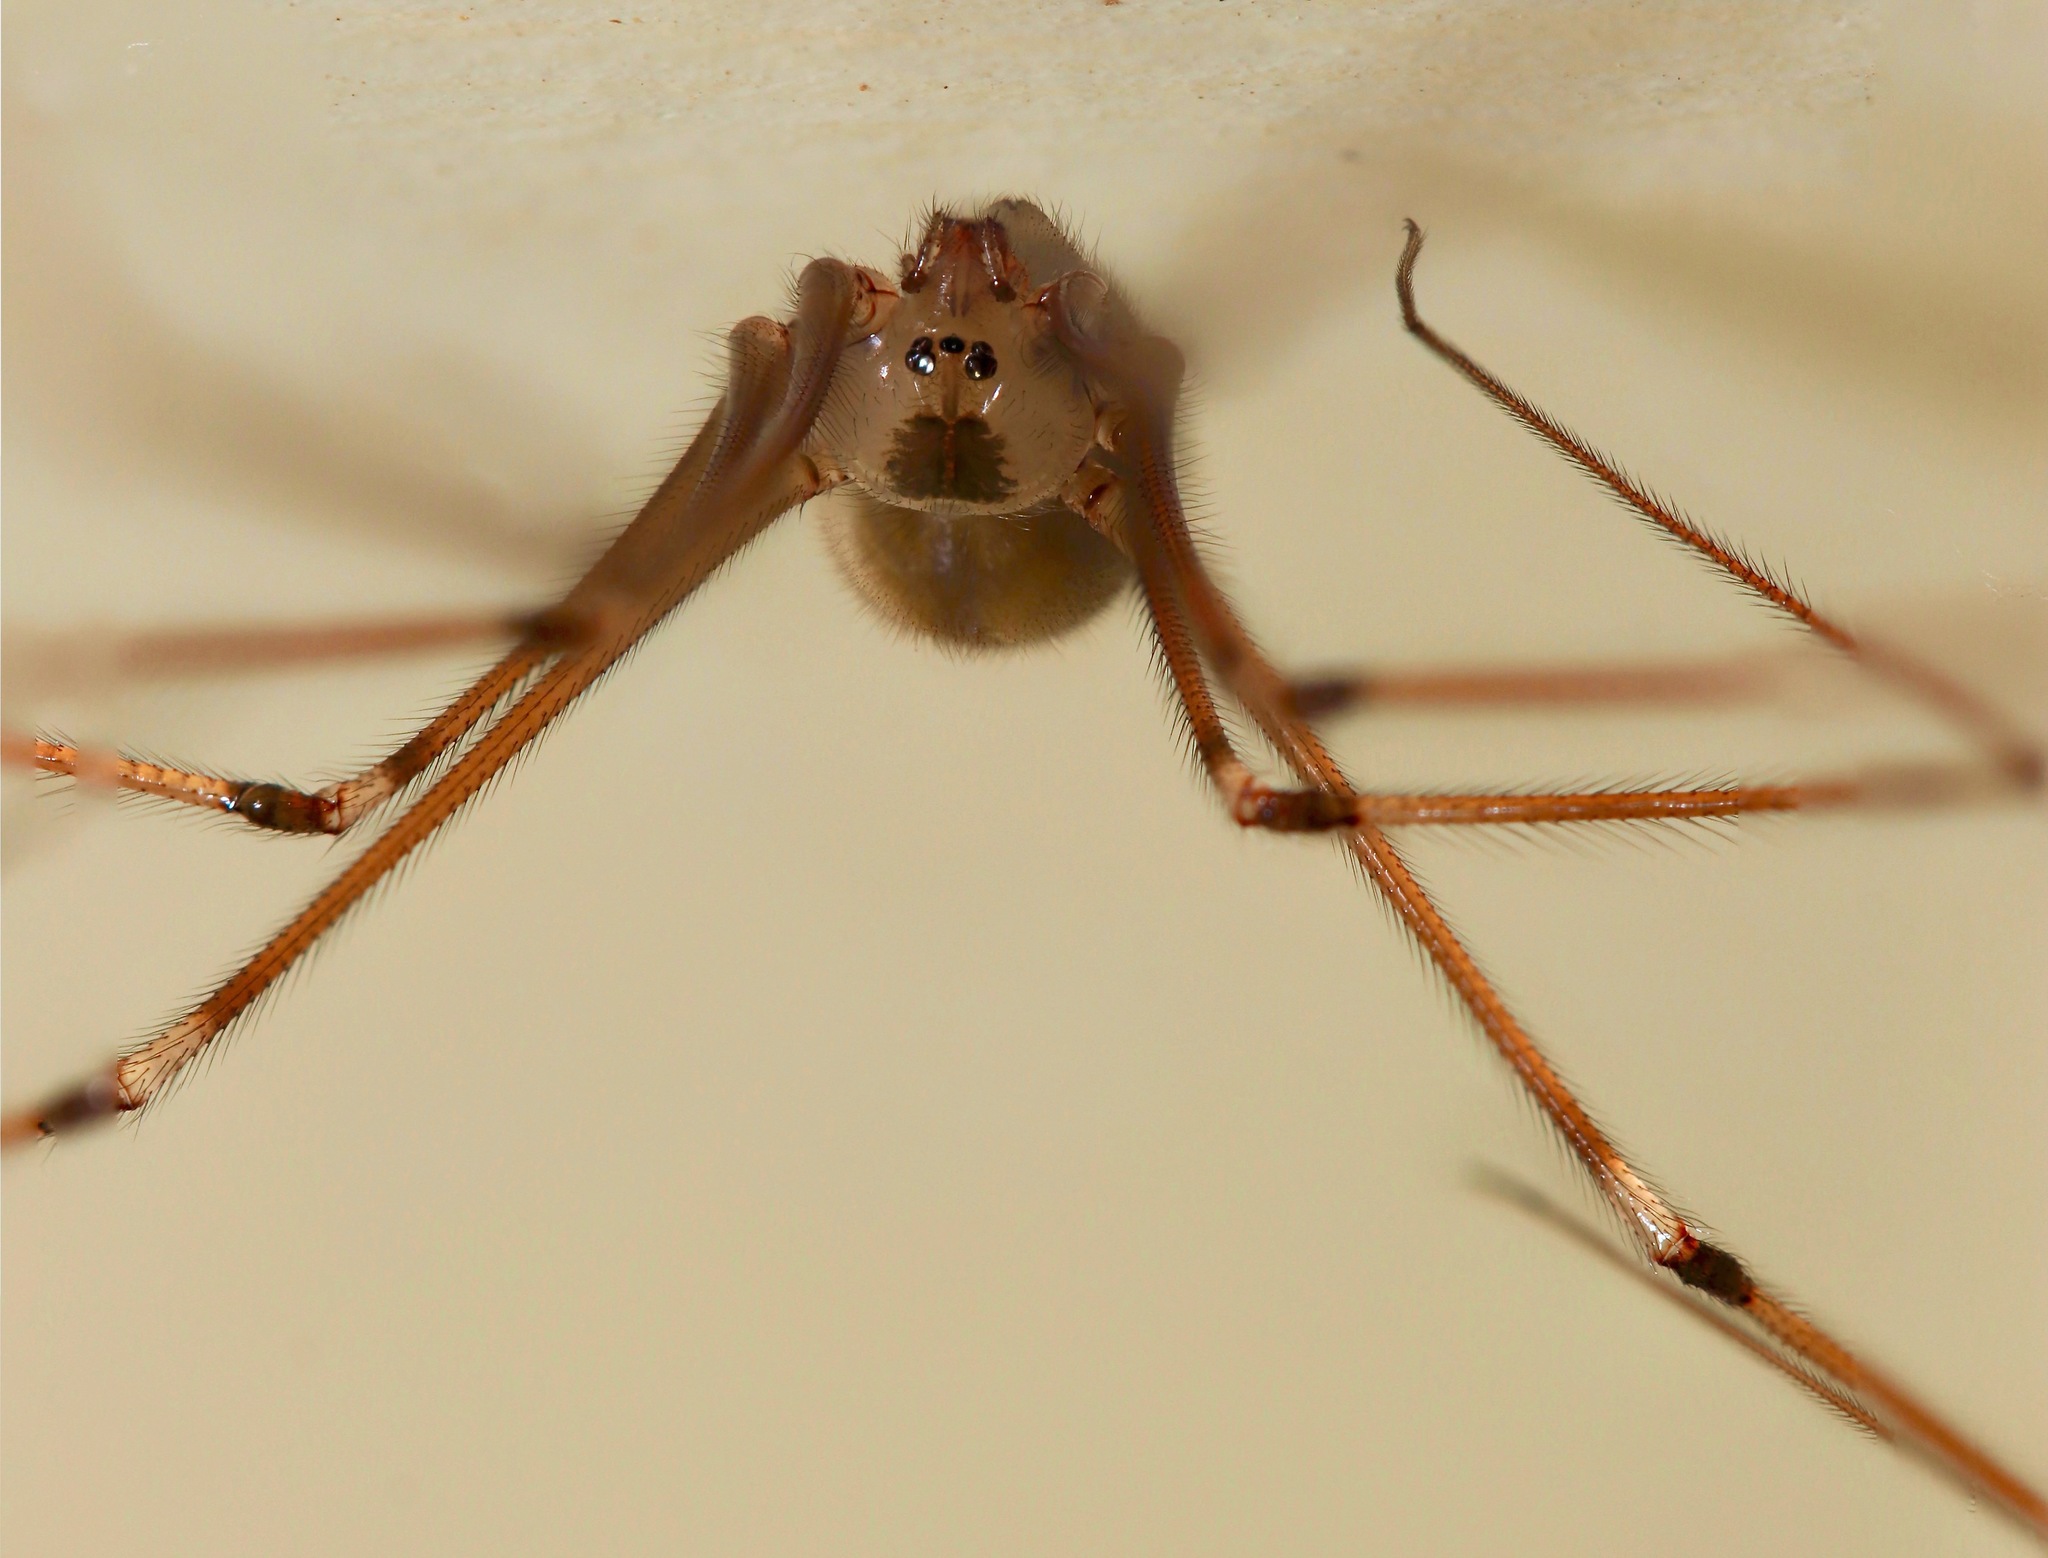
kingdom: Animalia
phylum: Arthropoda
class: Arachnida
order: Araneae
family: Pholcidae
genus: Pholcus
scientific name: Pholcus phalangioides
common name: Longbodied cellar spider
